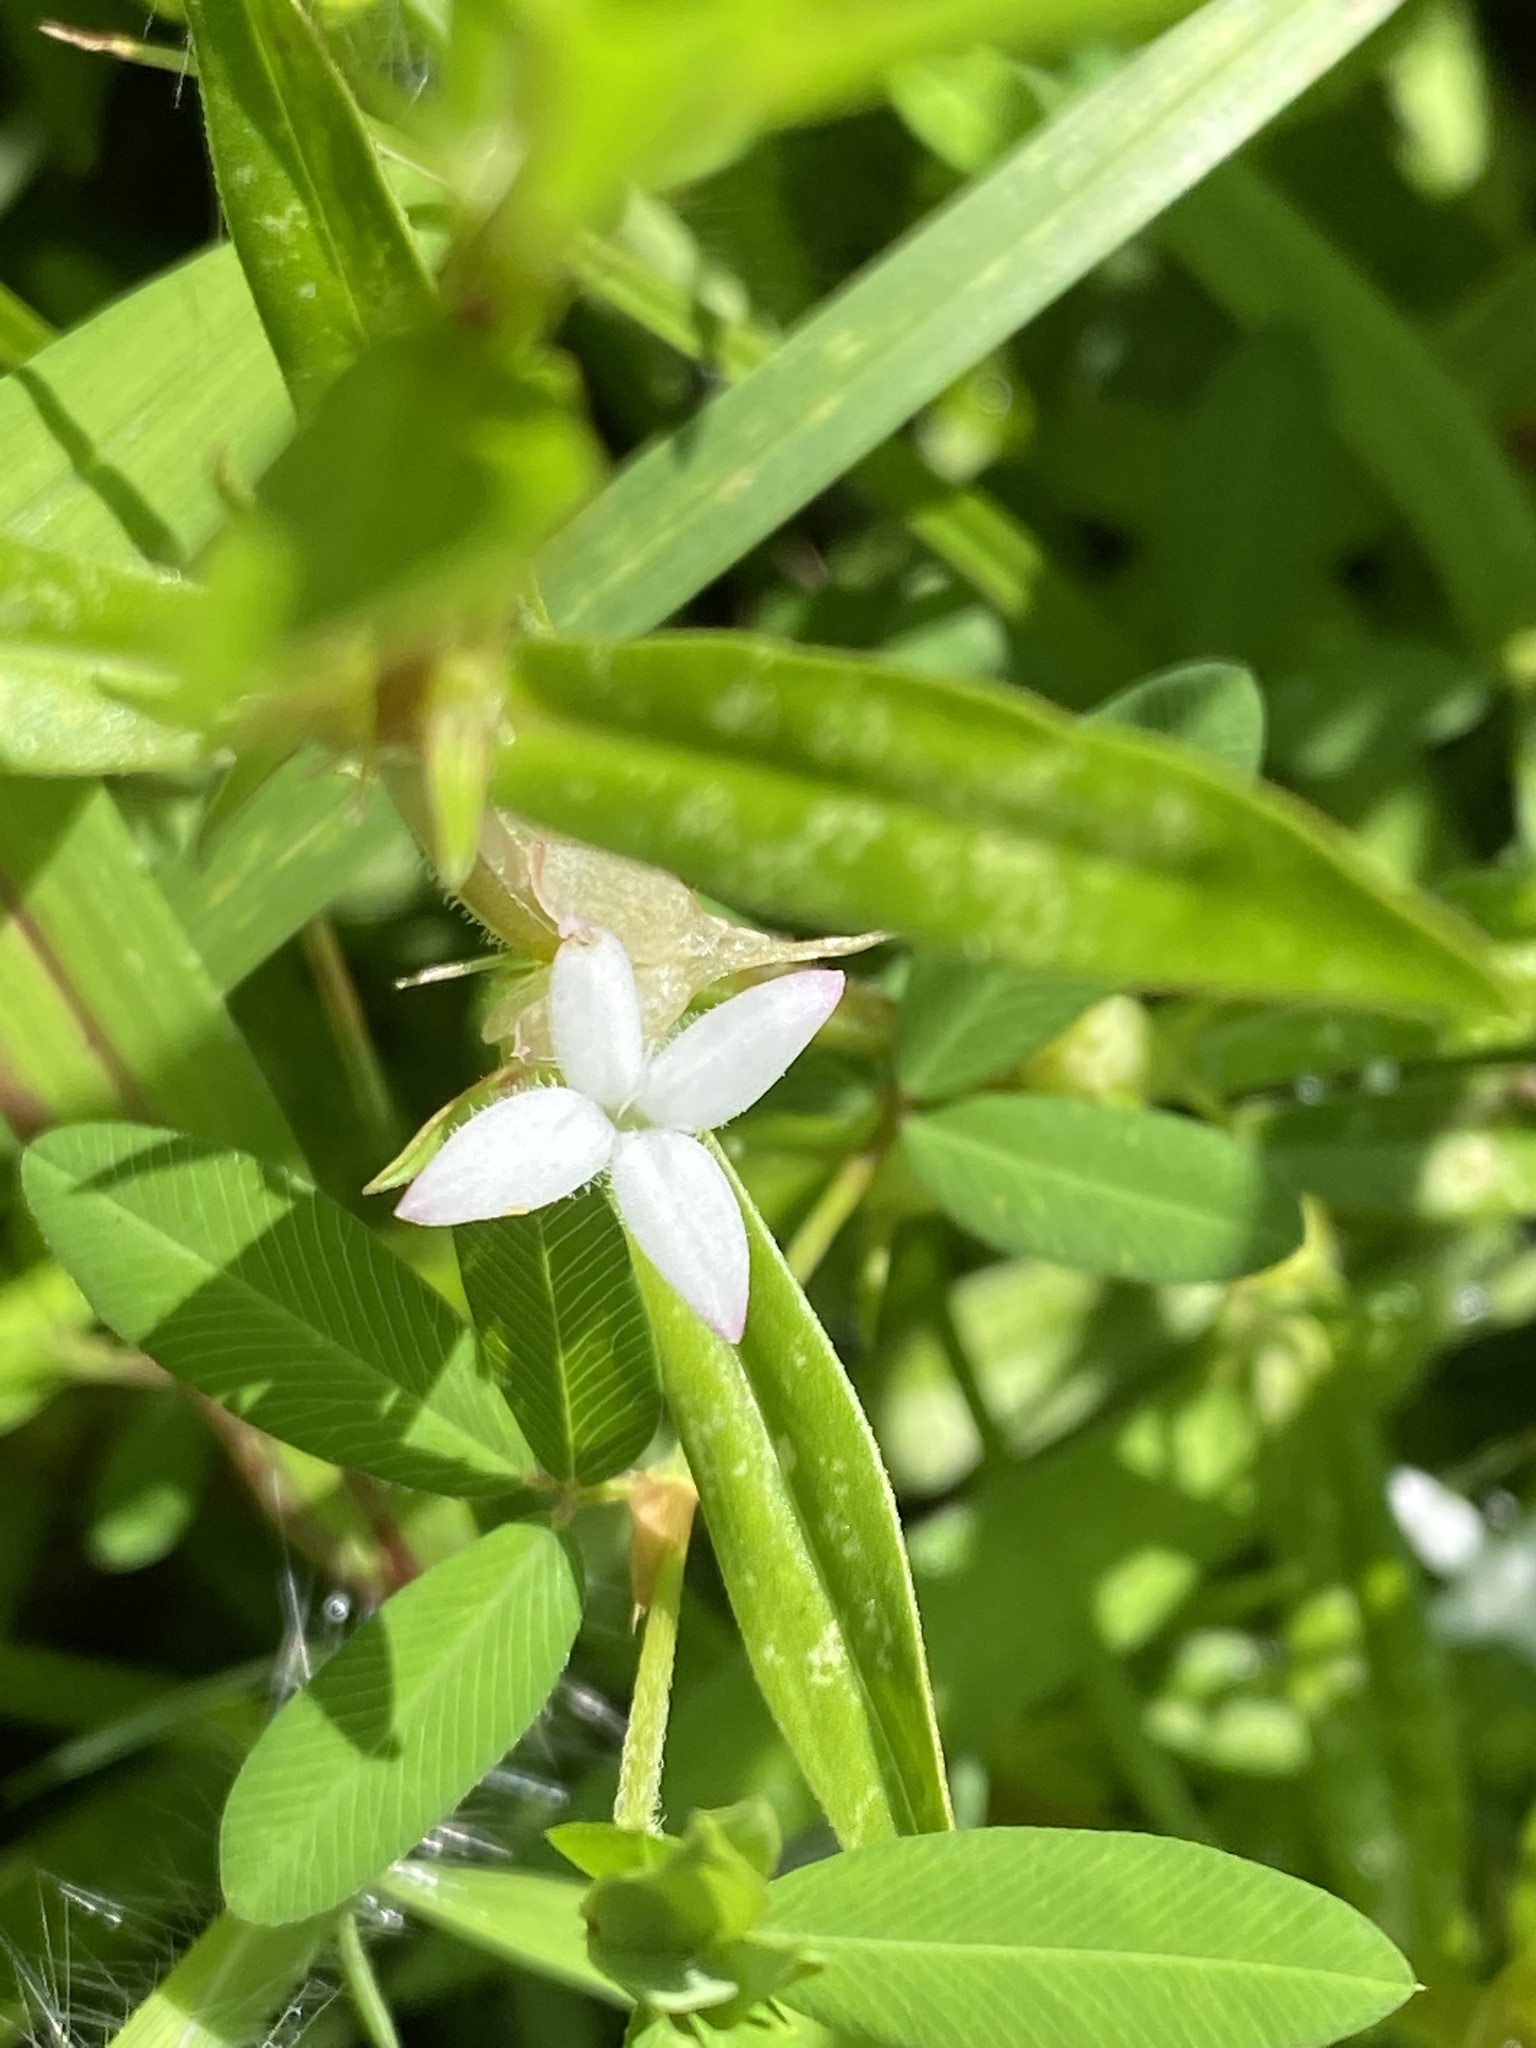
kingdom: Plantae
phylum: Tracheophyta
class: Magnoliopsida
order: Gentianales
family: Rubiaceae
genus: Diodia
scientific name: Diodia virginiana
